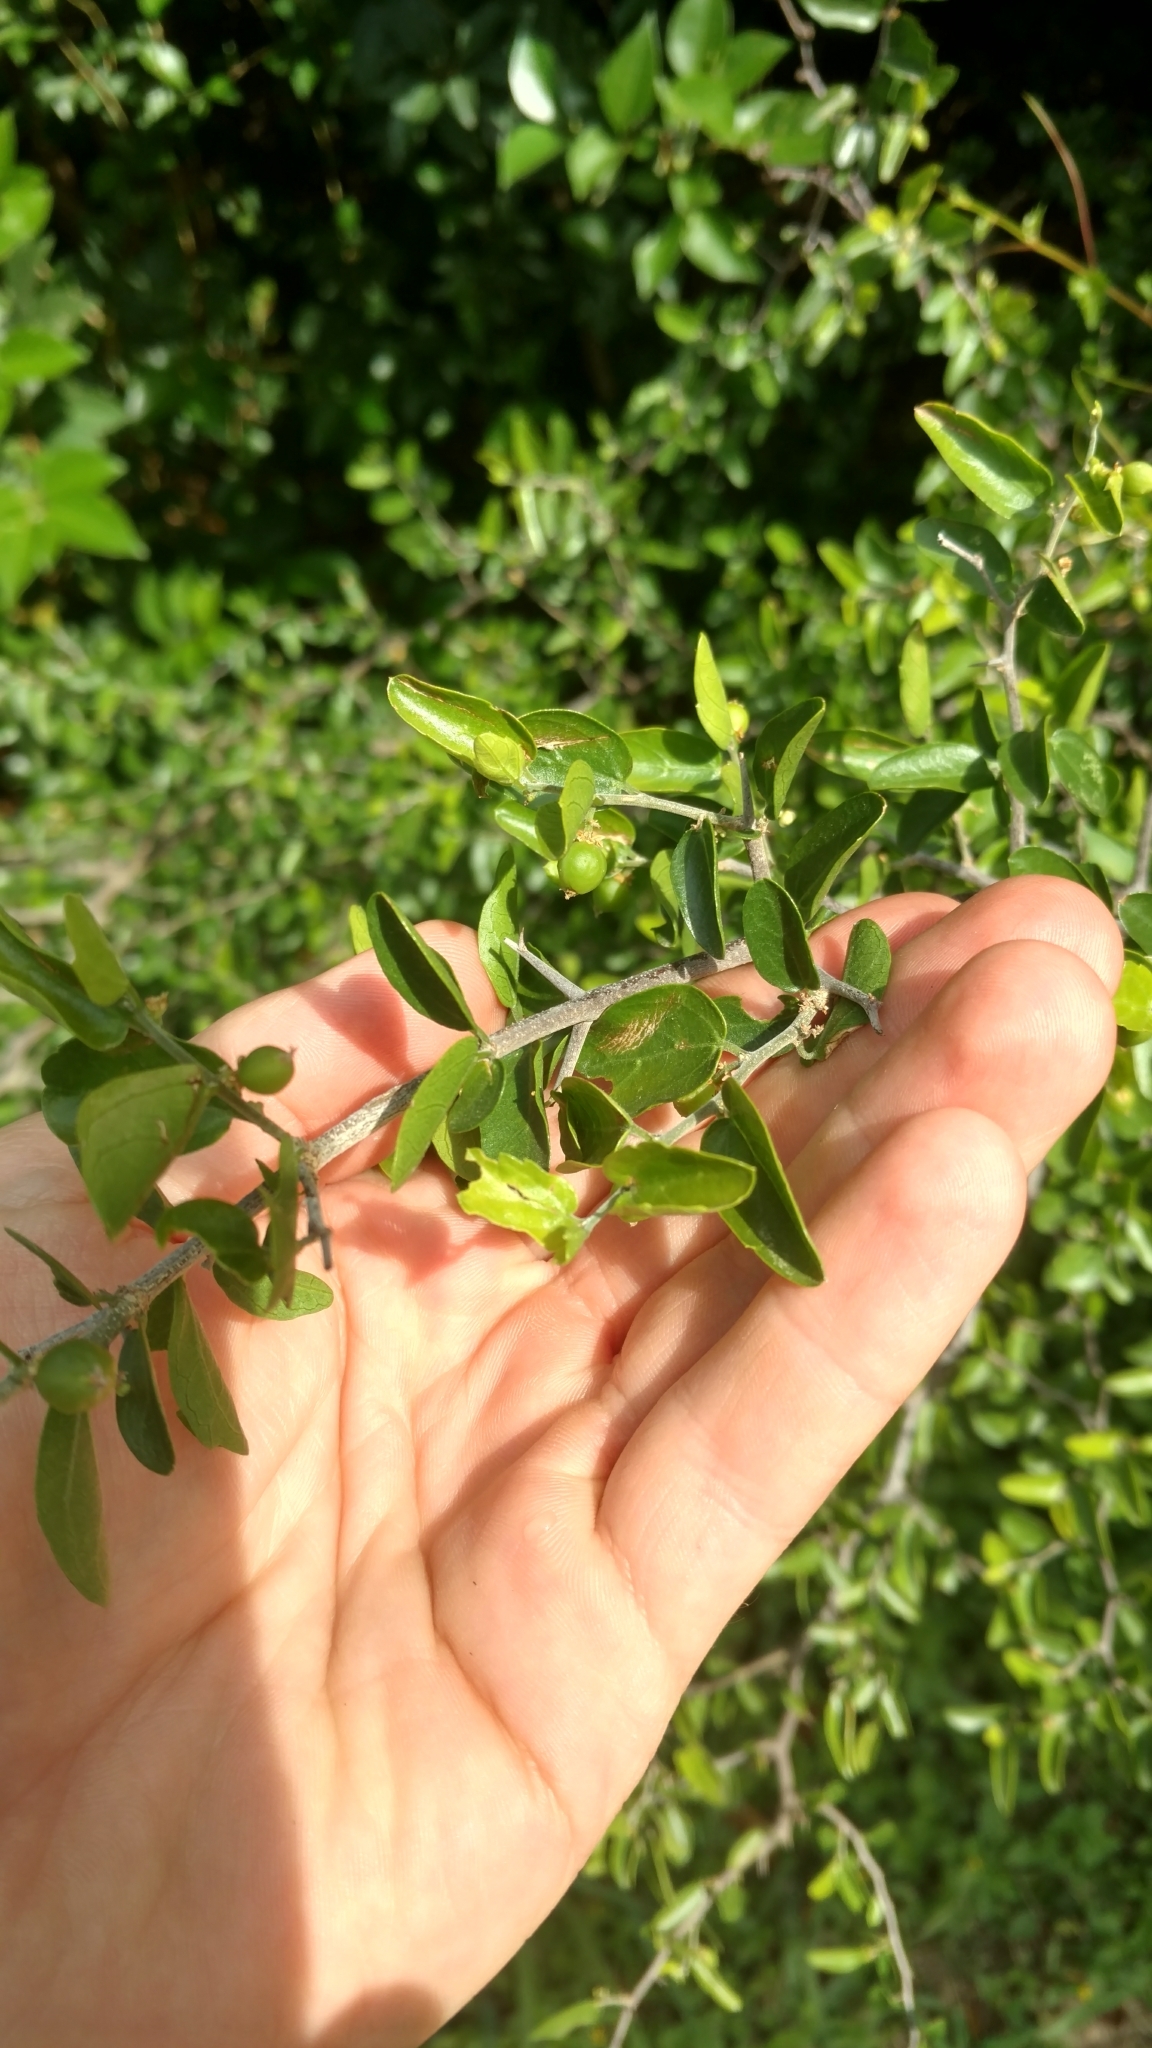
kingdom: Plantae
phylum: Tracheophyta
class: Magnoliopsida
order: Rosales
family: Cannabaceae
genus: Celtis
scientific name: Celtis pallida
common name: Desert hackberry
